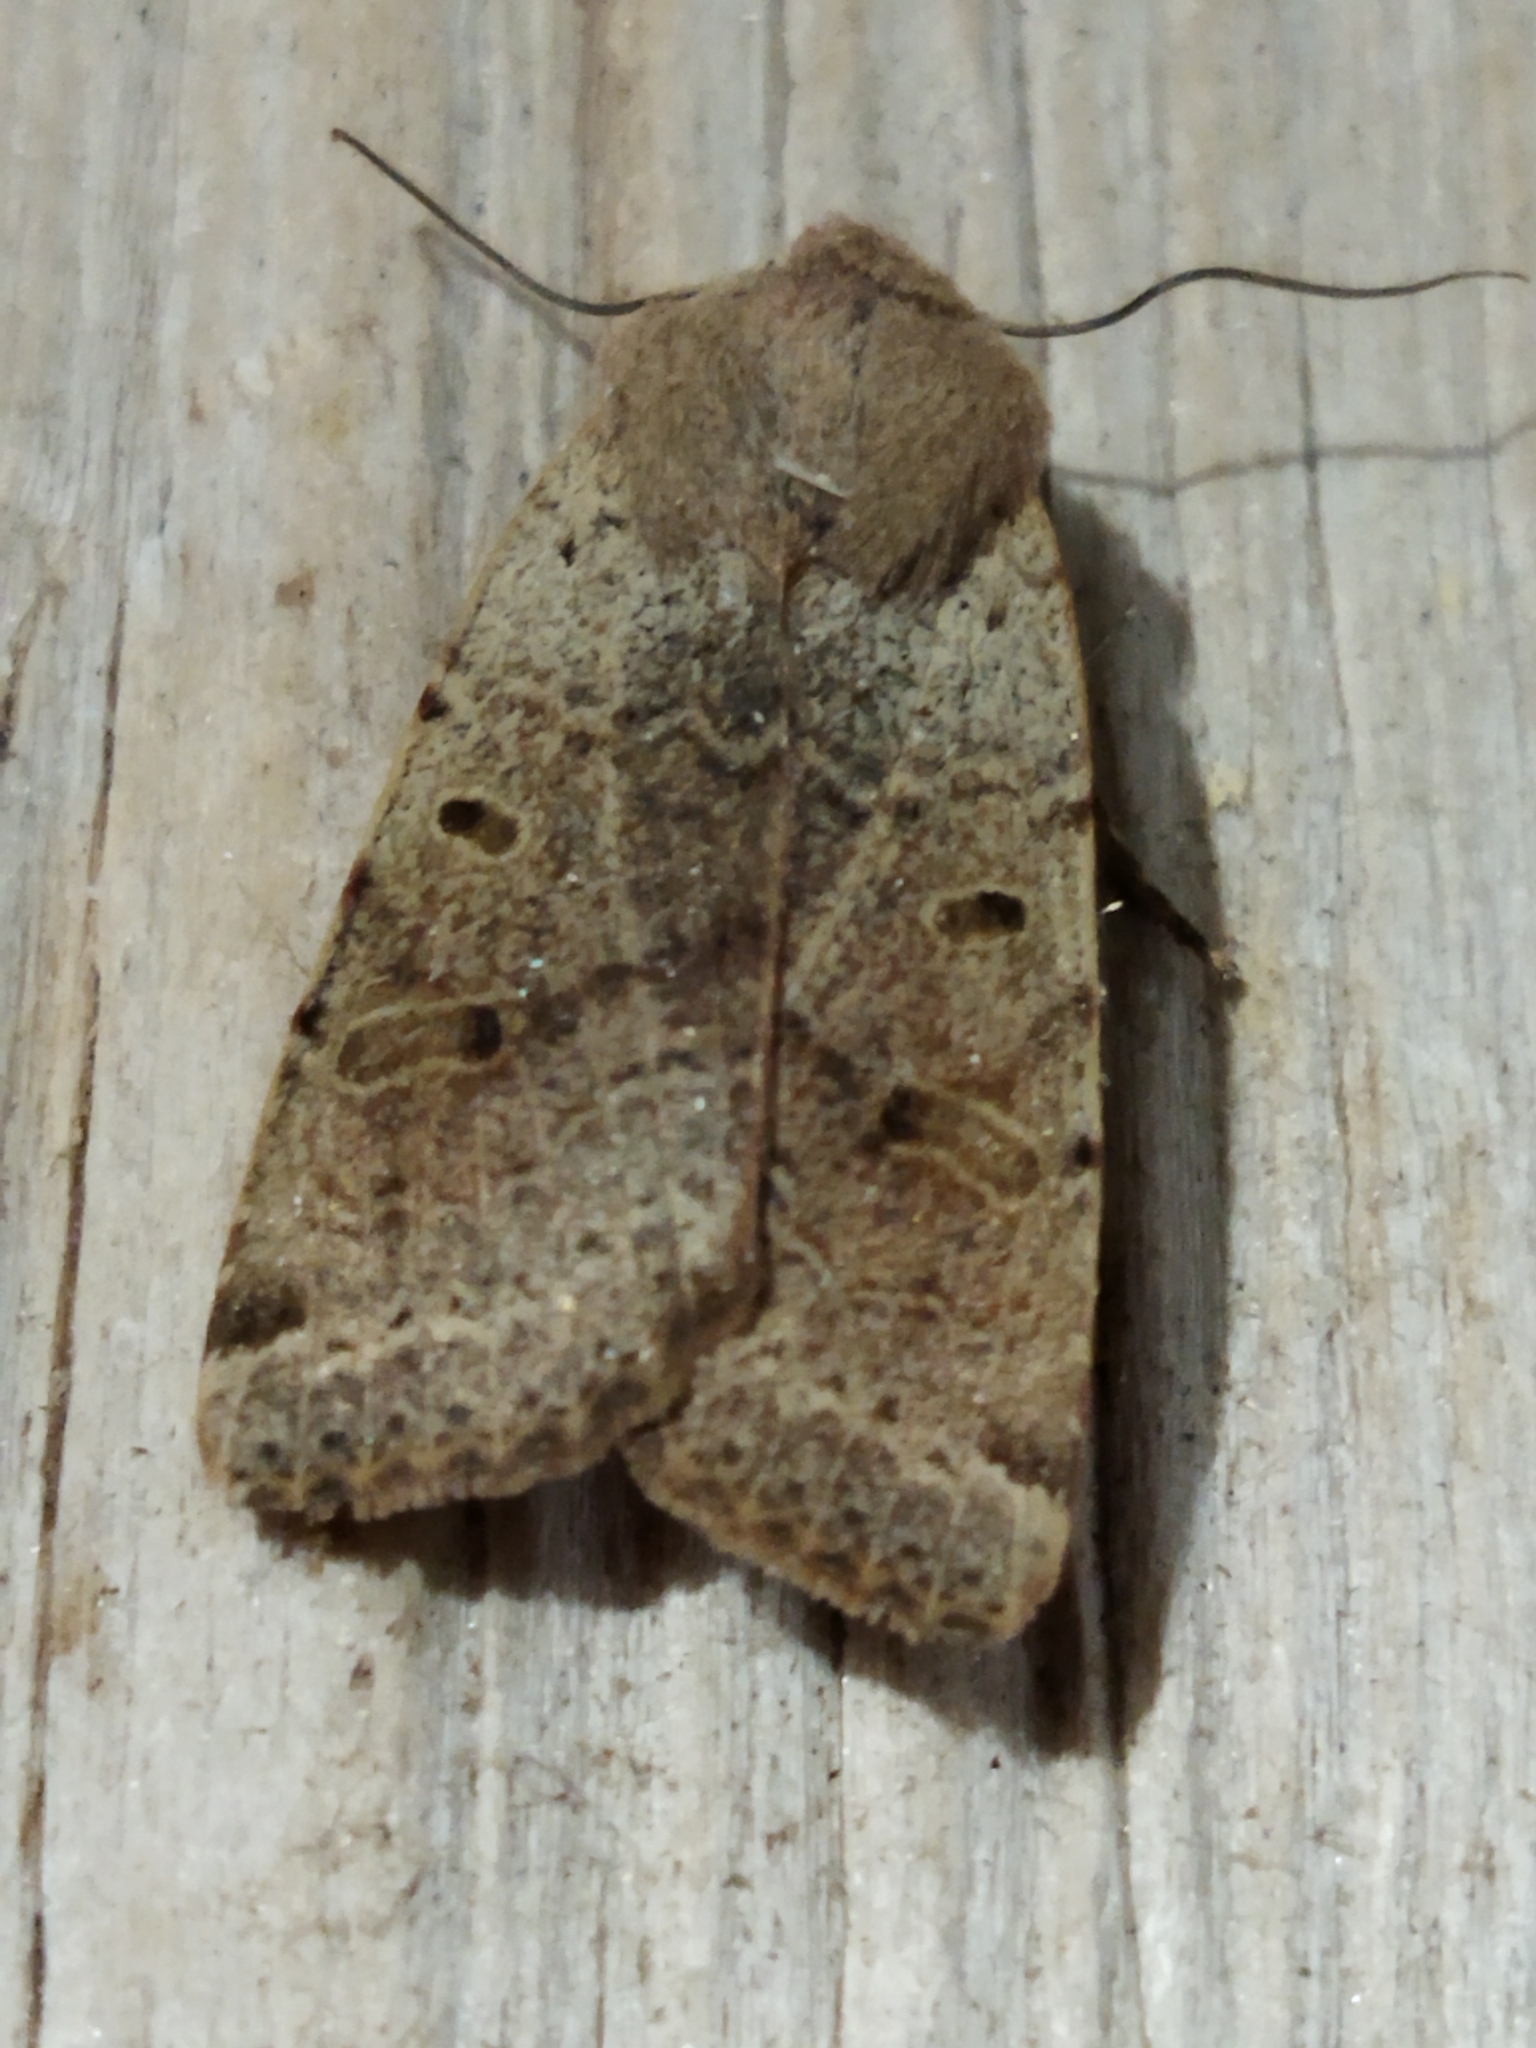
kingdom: Animalia
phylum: Arthropoda
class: Insecta
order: Lepidoptera
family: Noctuidae
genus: Agrochola
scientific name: Agrochola lychnidis
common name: Beaded chestnut
